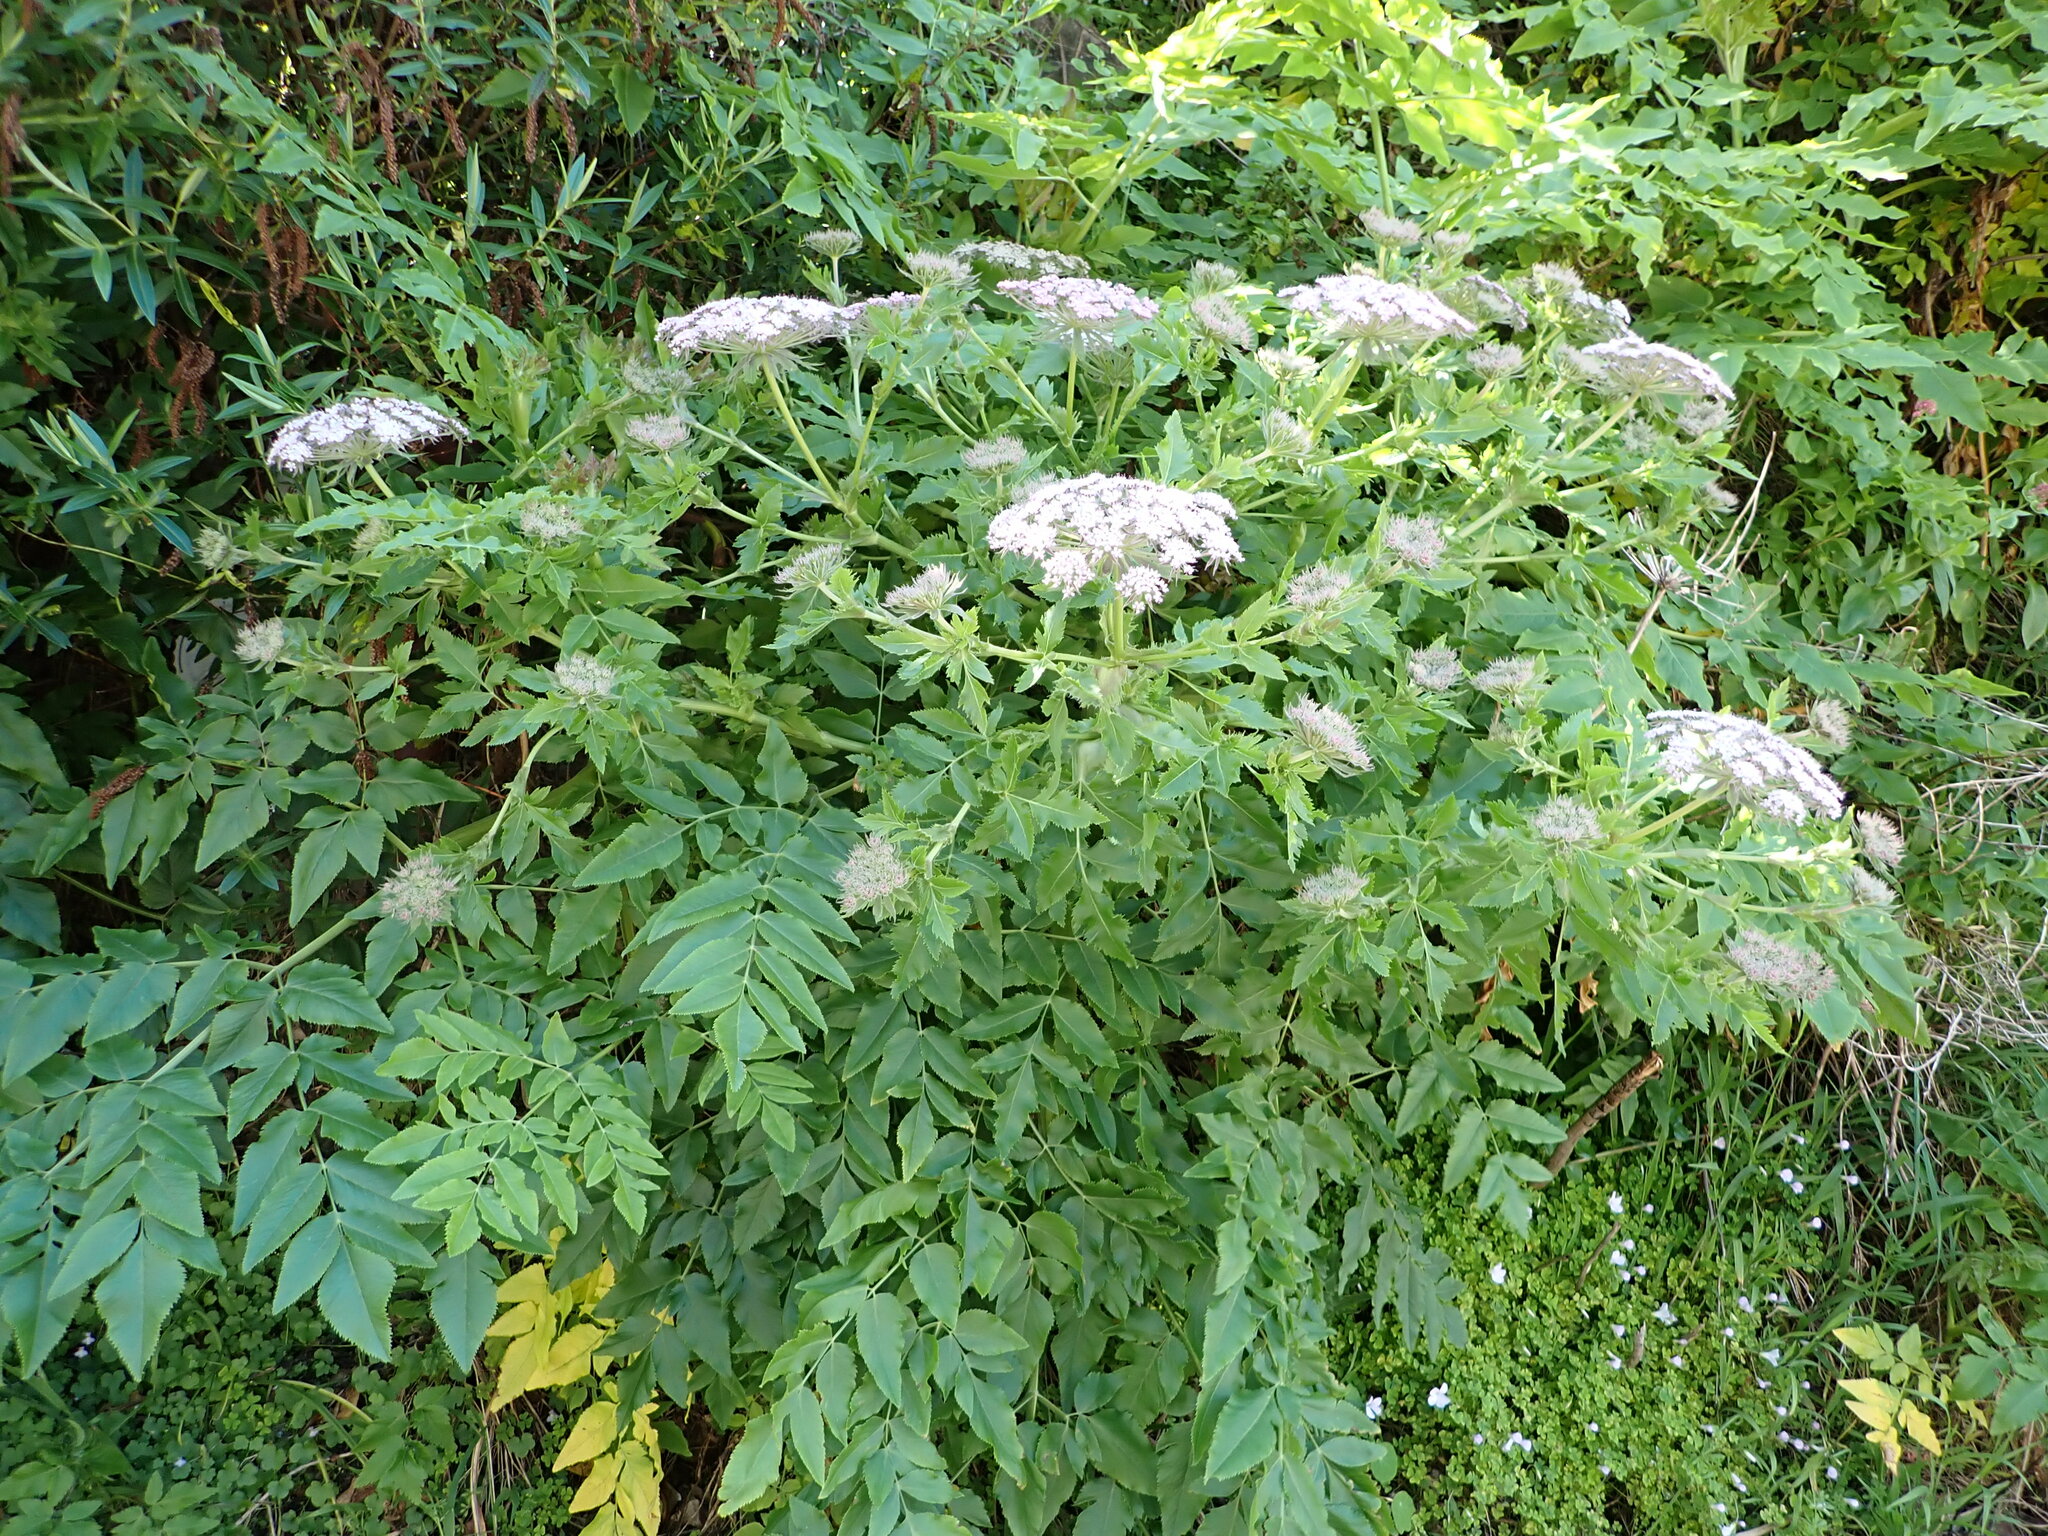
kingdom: Plantae
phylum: Tracheophyta
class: Magnoliopsida
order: Apiales
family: Apiaceae
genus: Daucus
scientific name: Daucus decipiens
